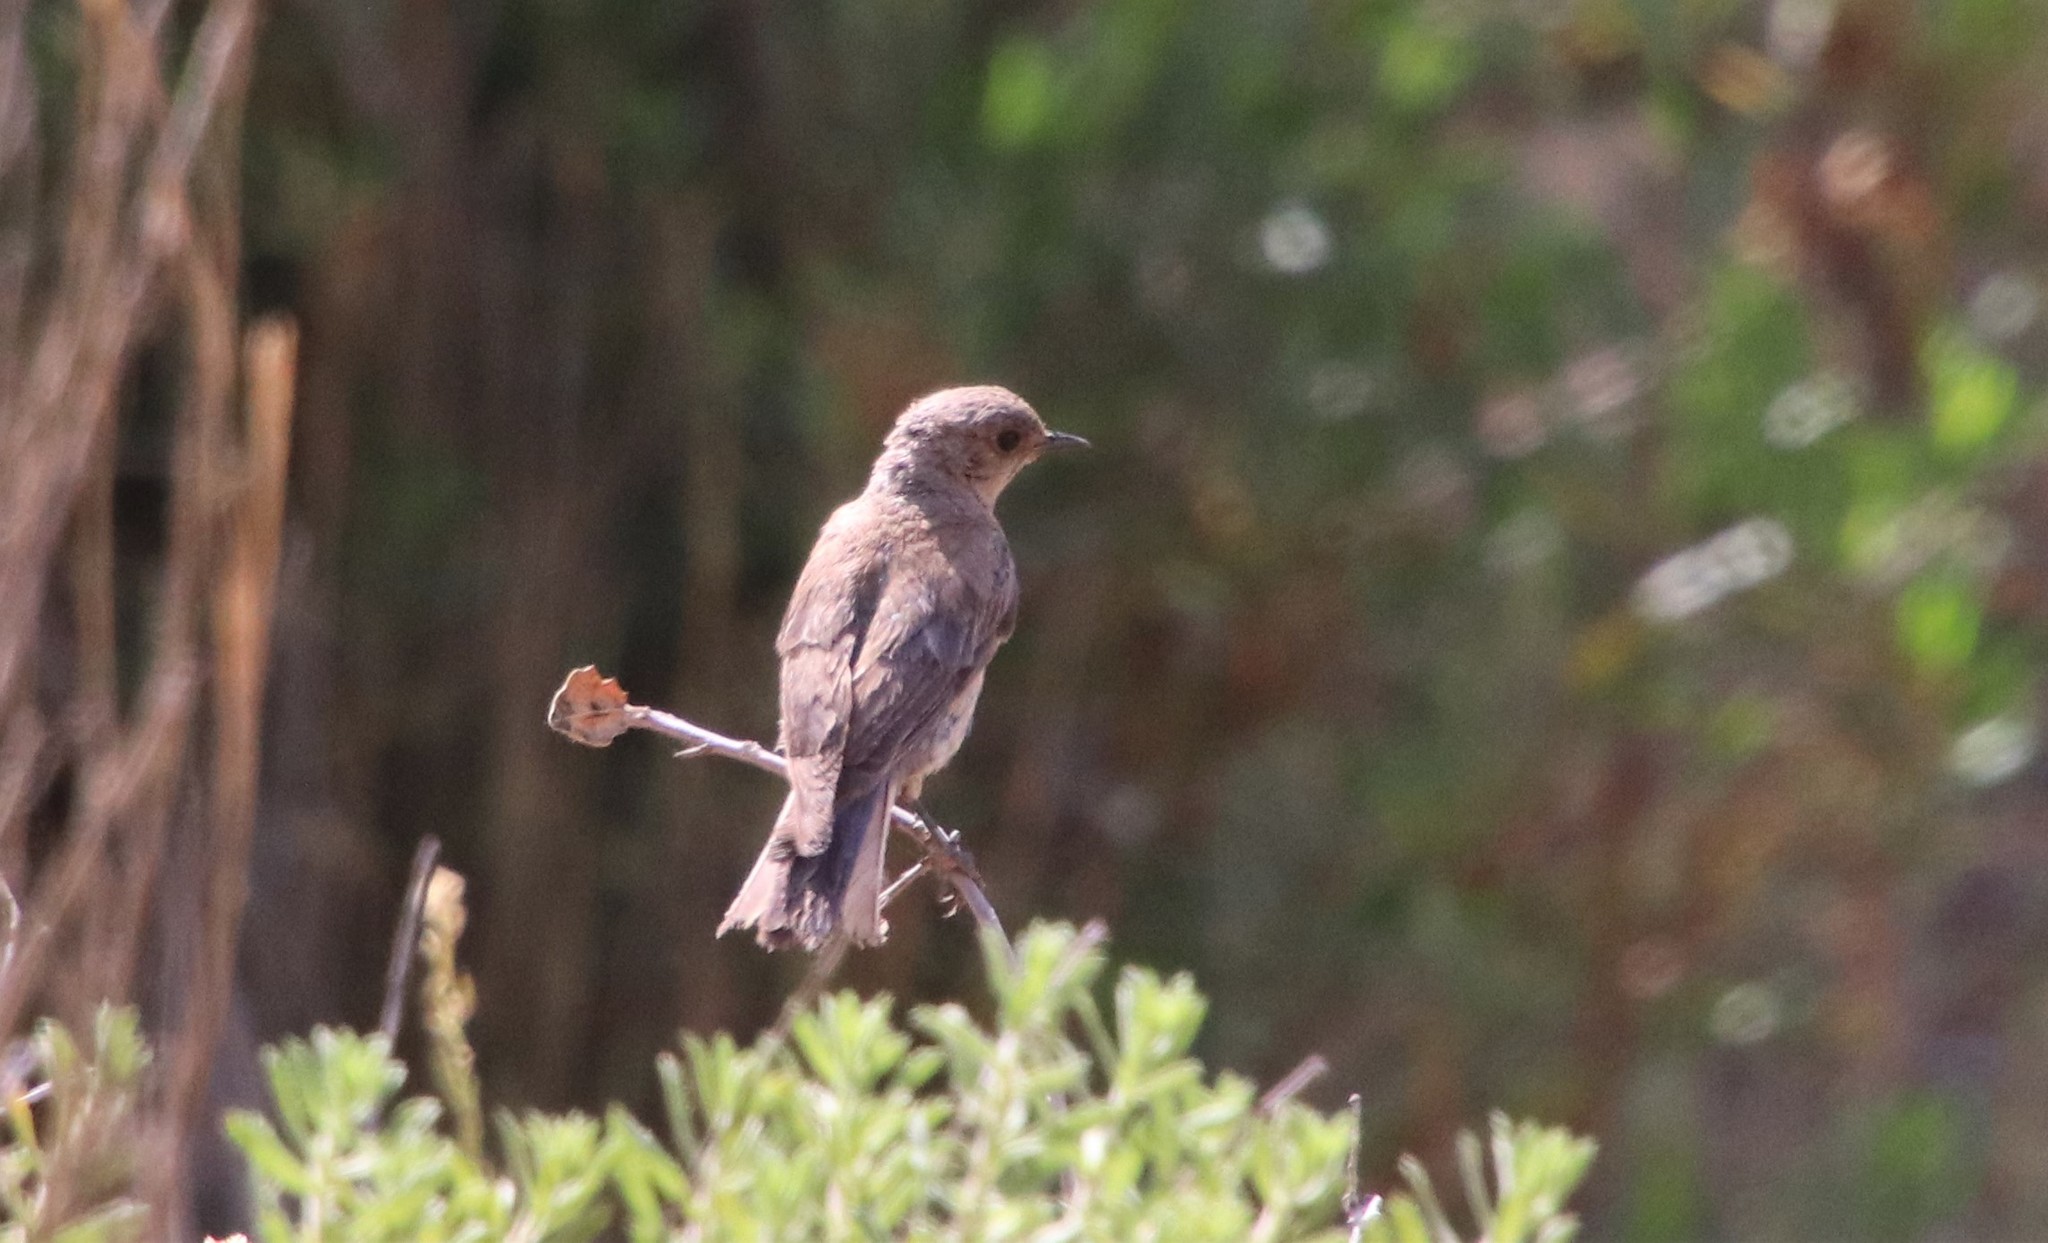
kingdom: Animalia
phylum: Chordata
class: Aves
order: Passeriformes
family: Turdidae
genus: Sialia
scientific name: Sialia mexicana
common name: Western bluebird
